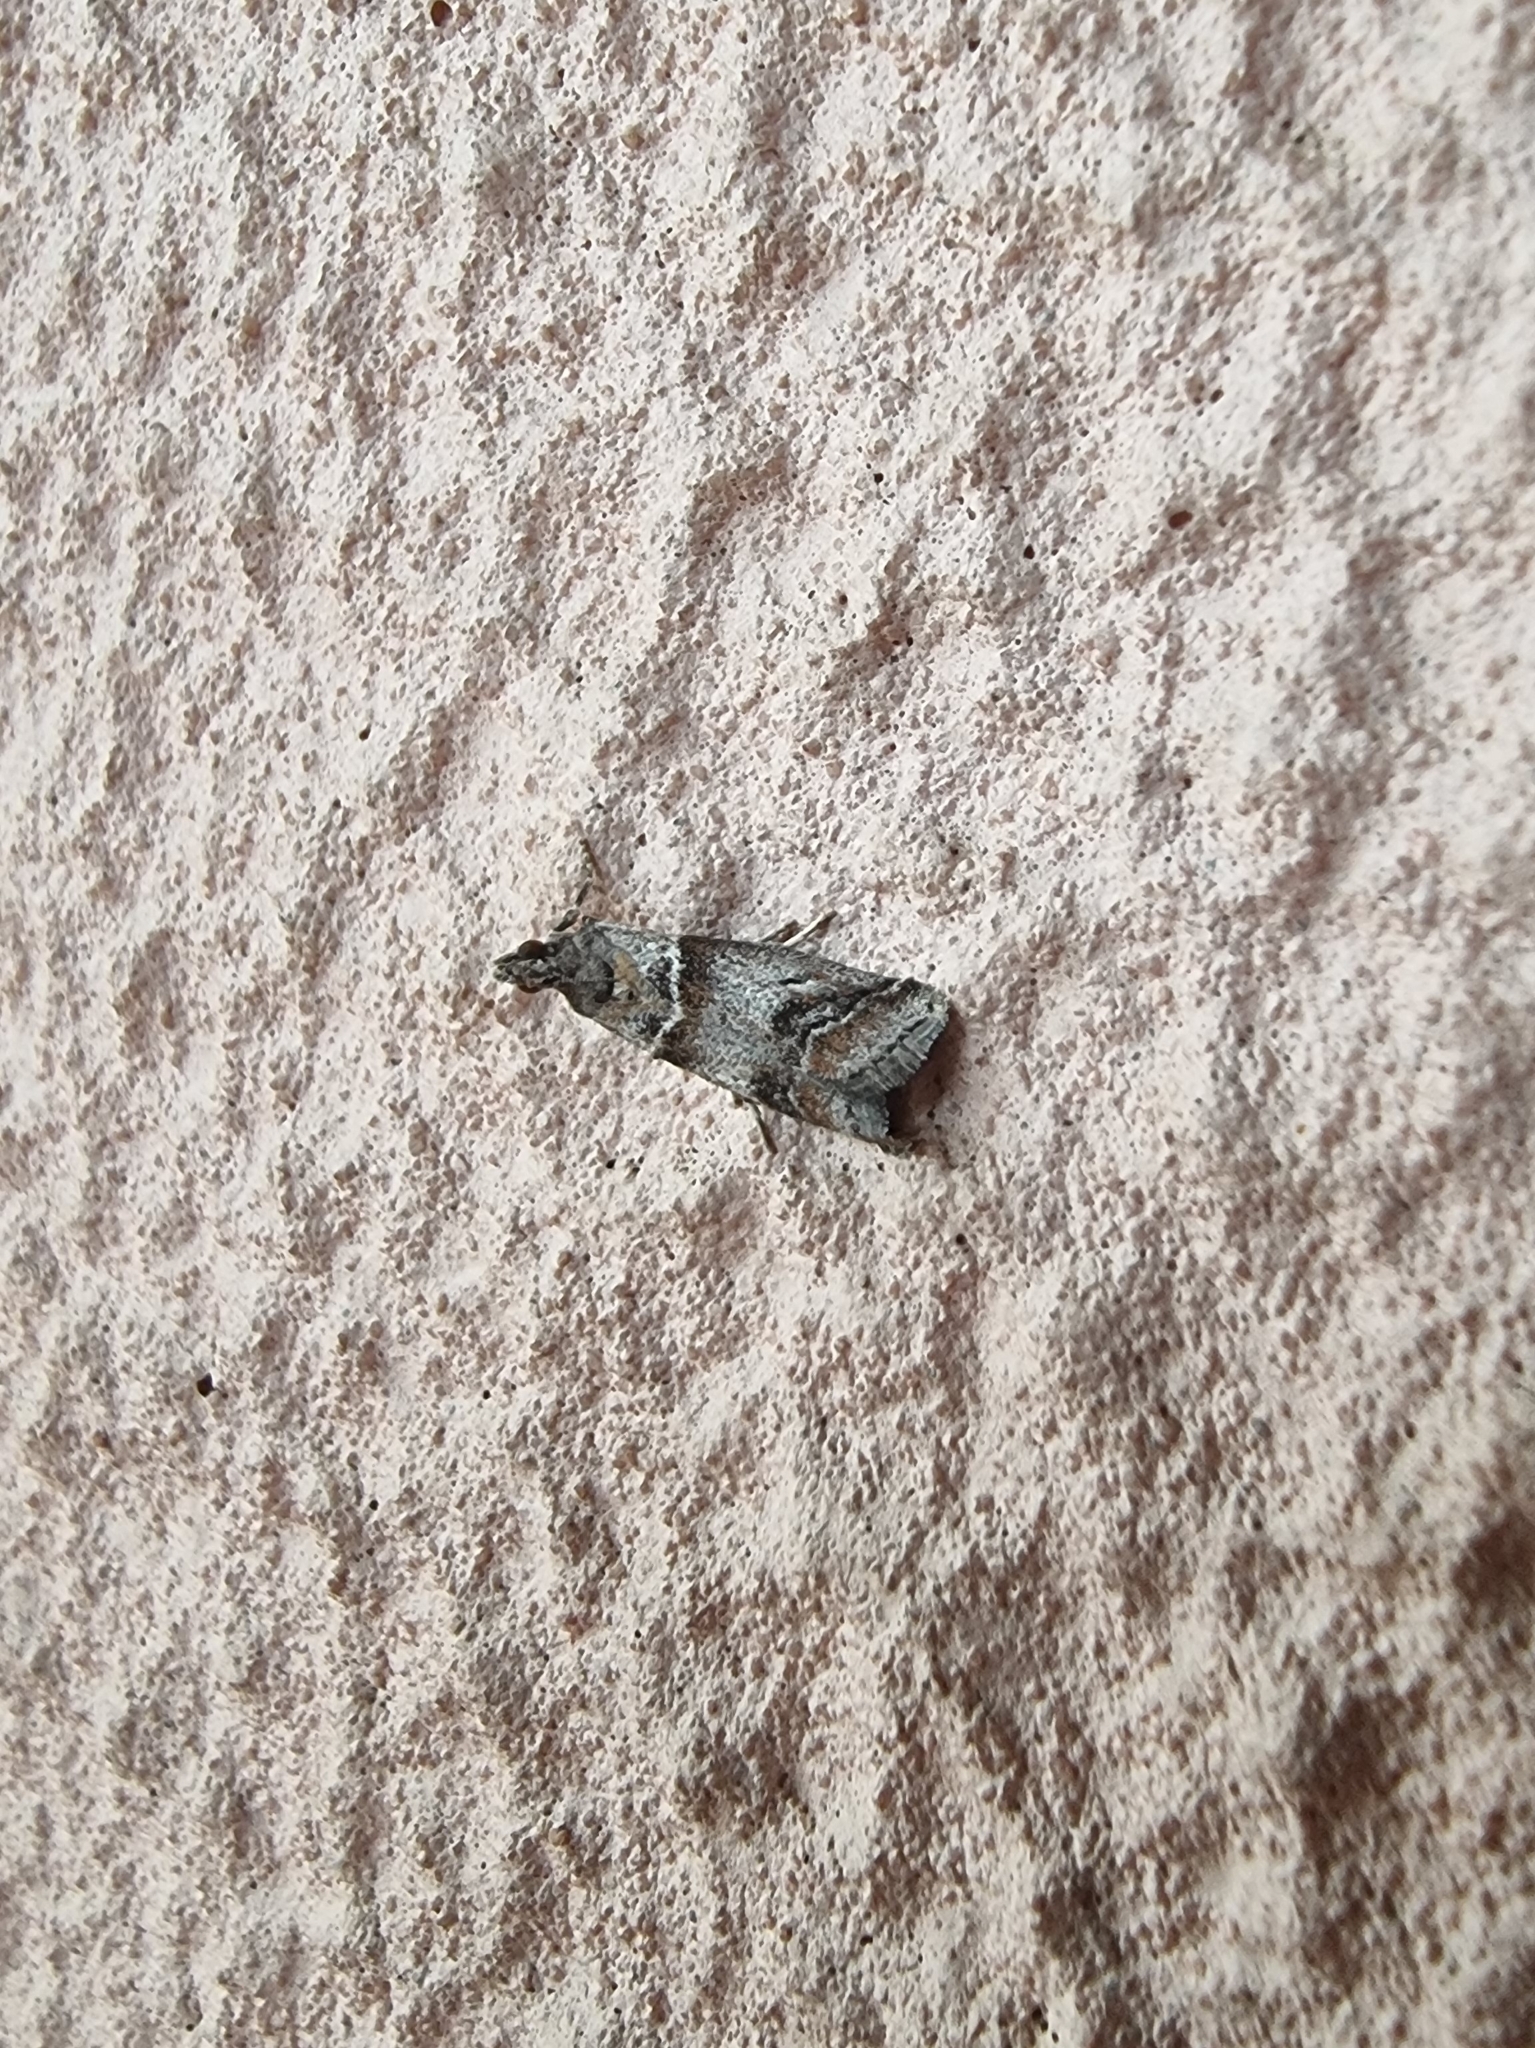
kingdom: Animalia
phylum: Arthropoda
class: Insecta
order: Lepidoptera
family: Pyralidae
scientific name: Pyralidae
